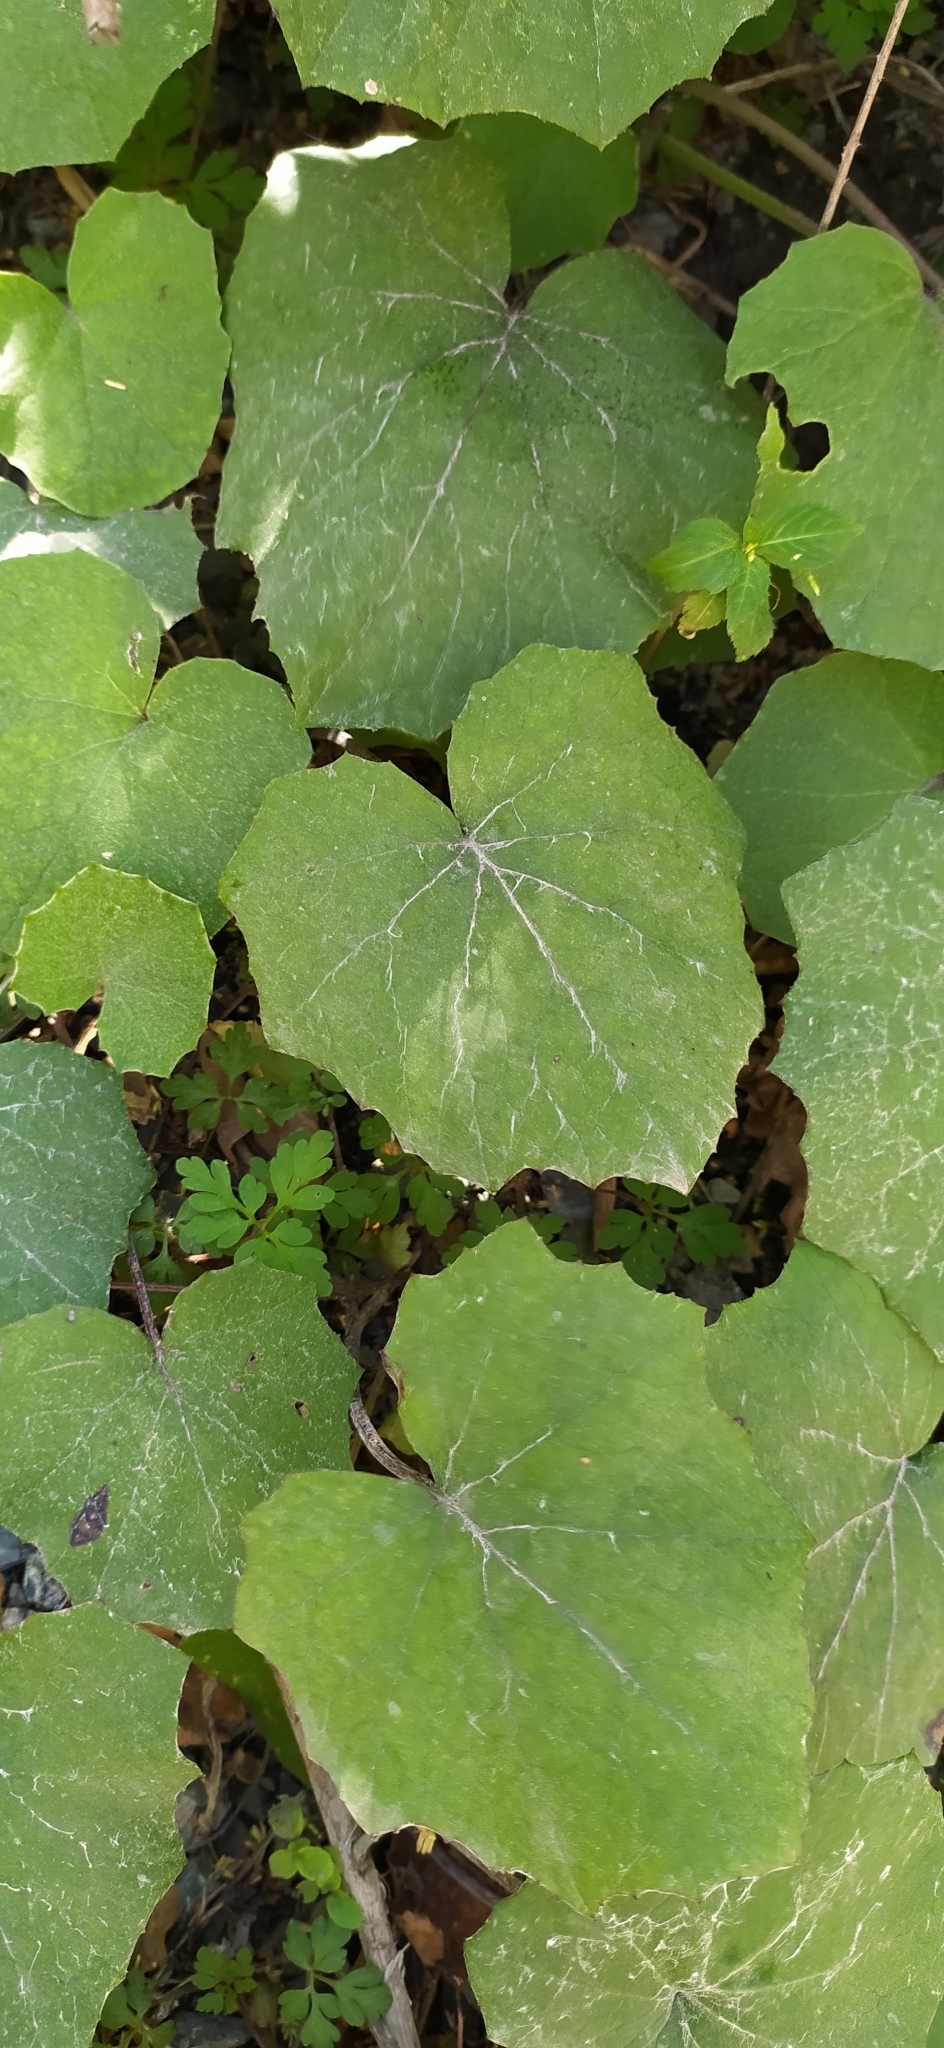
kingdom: Plantae
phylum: Tracheophyta
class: Magnoliopsida
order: Asterales
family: Asteraceae
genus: Tussilago
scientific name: Tussilago farfara
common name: Coltsfoot
